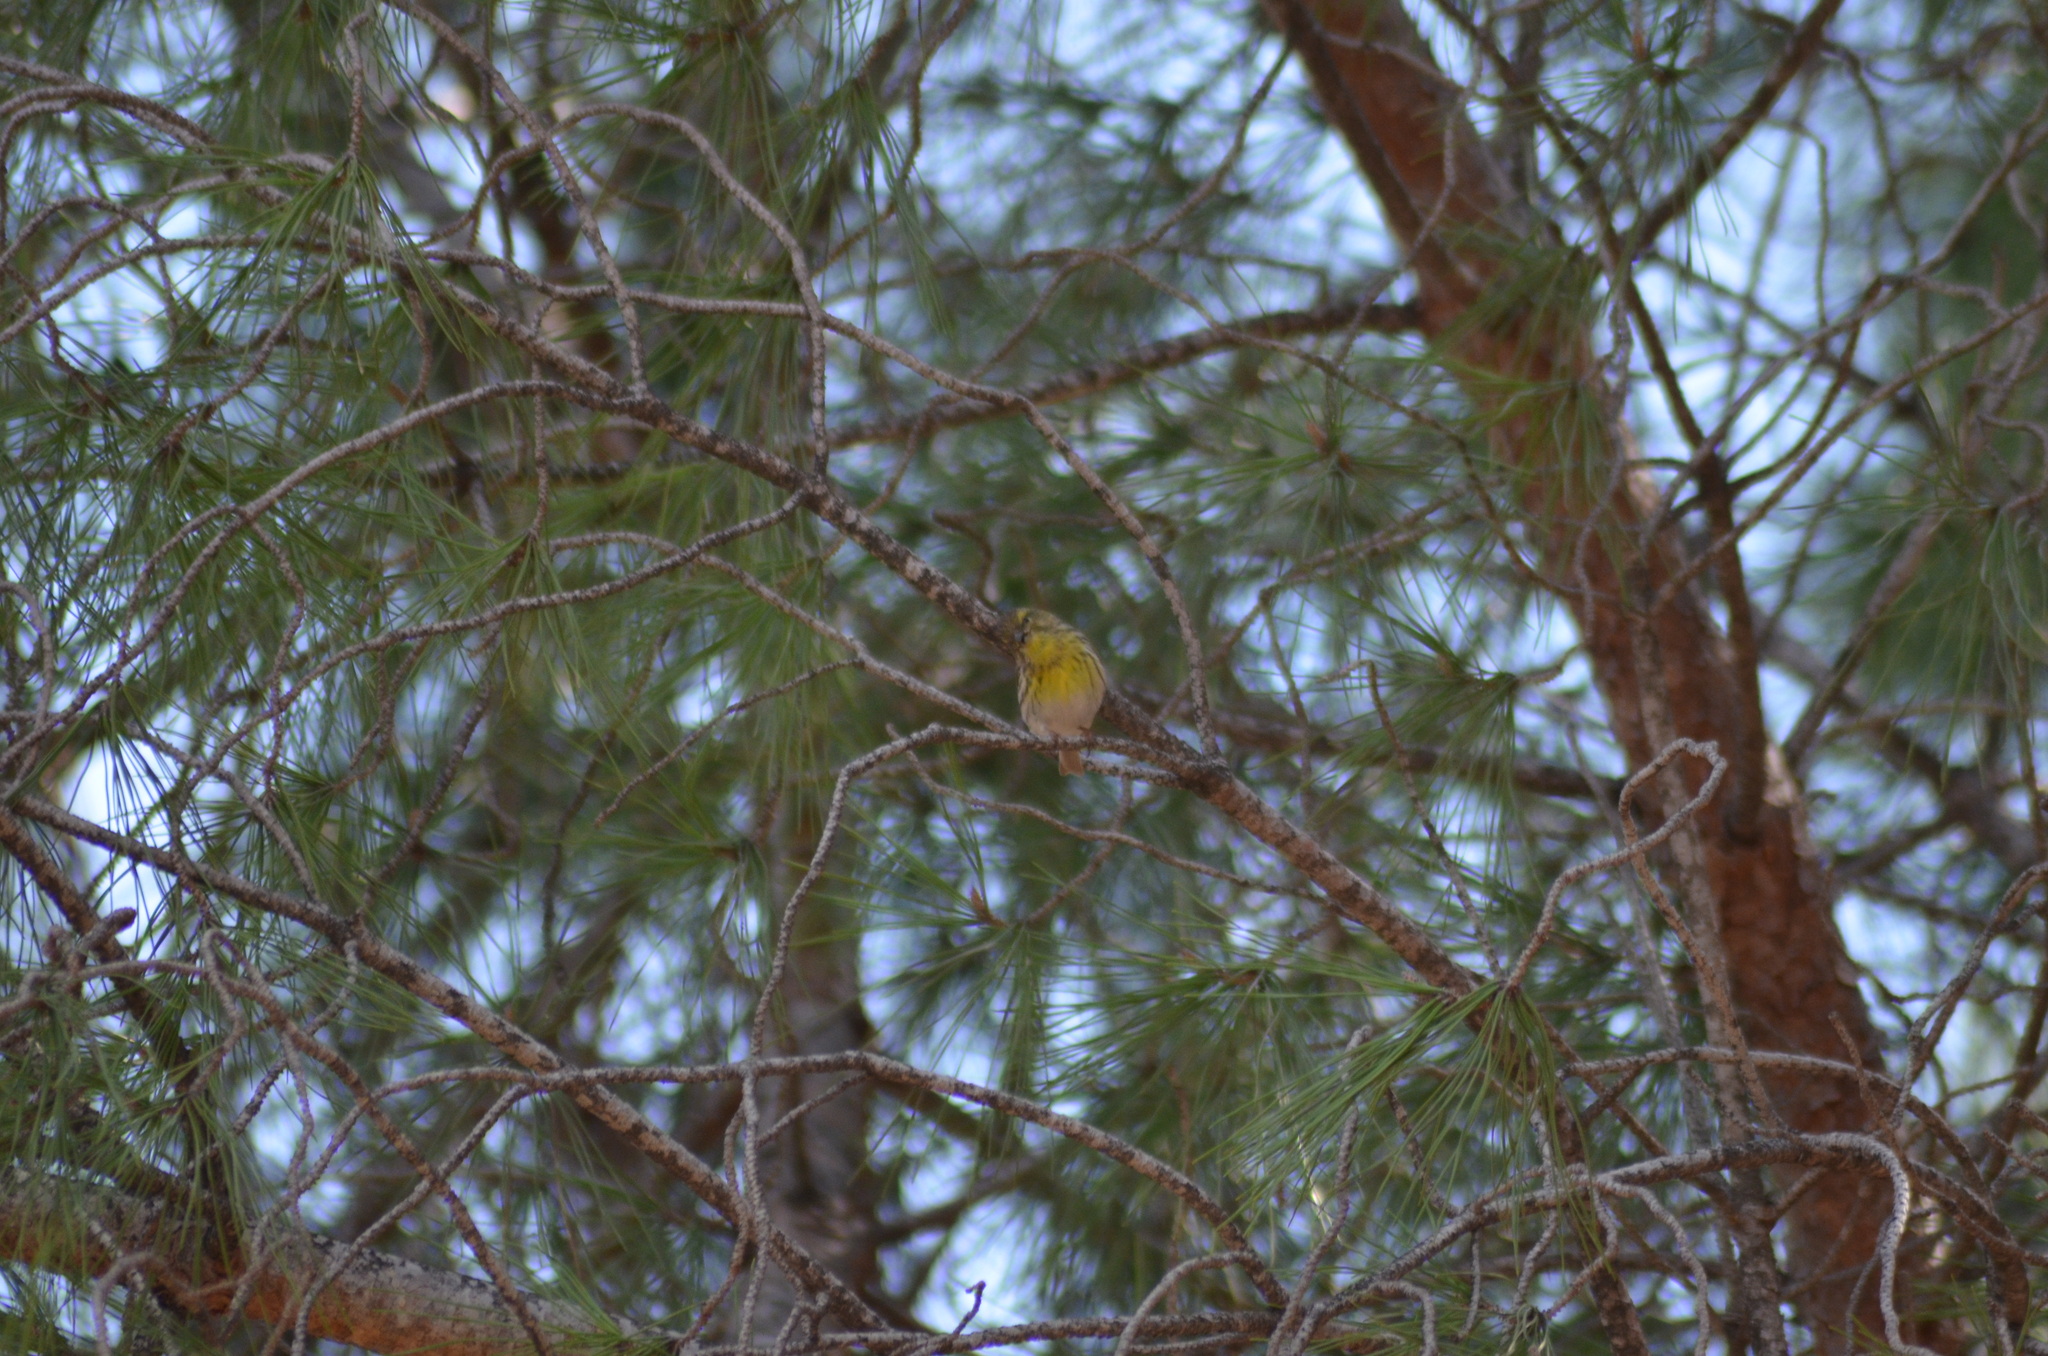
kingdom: Animalia
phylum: Chordata
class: Aves
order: Passeriformes
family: Fringillidae
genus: Serinus
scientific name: Serinus serinus
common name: European serin
